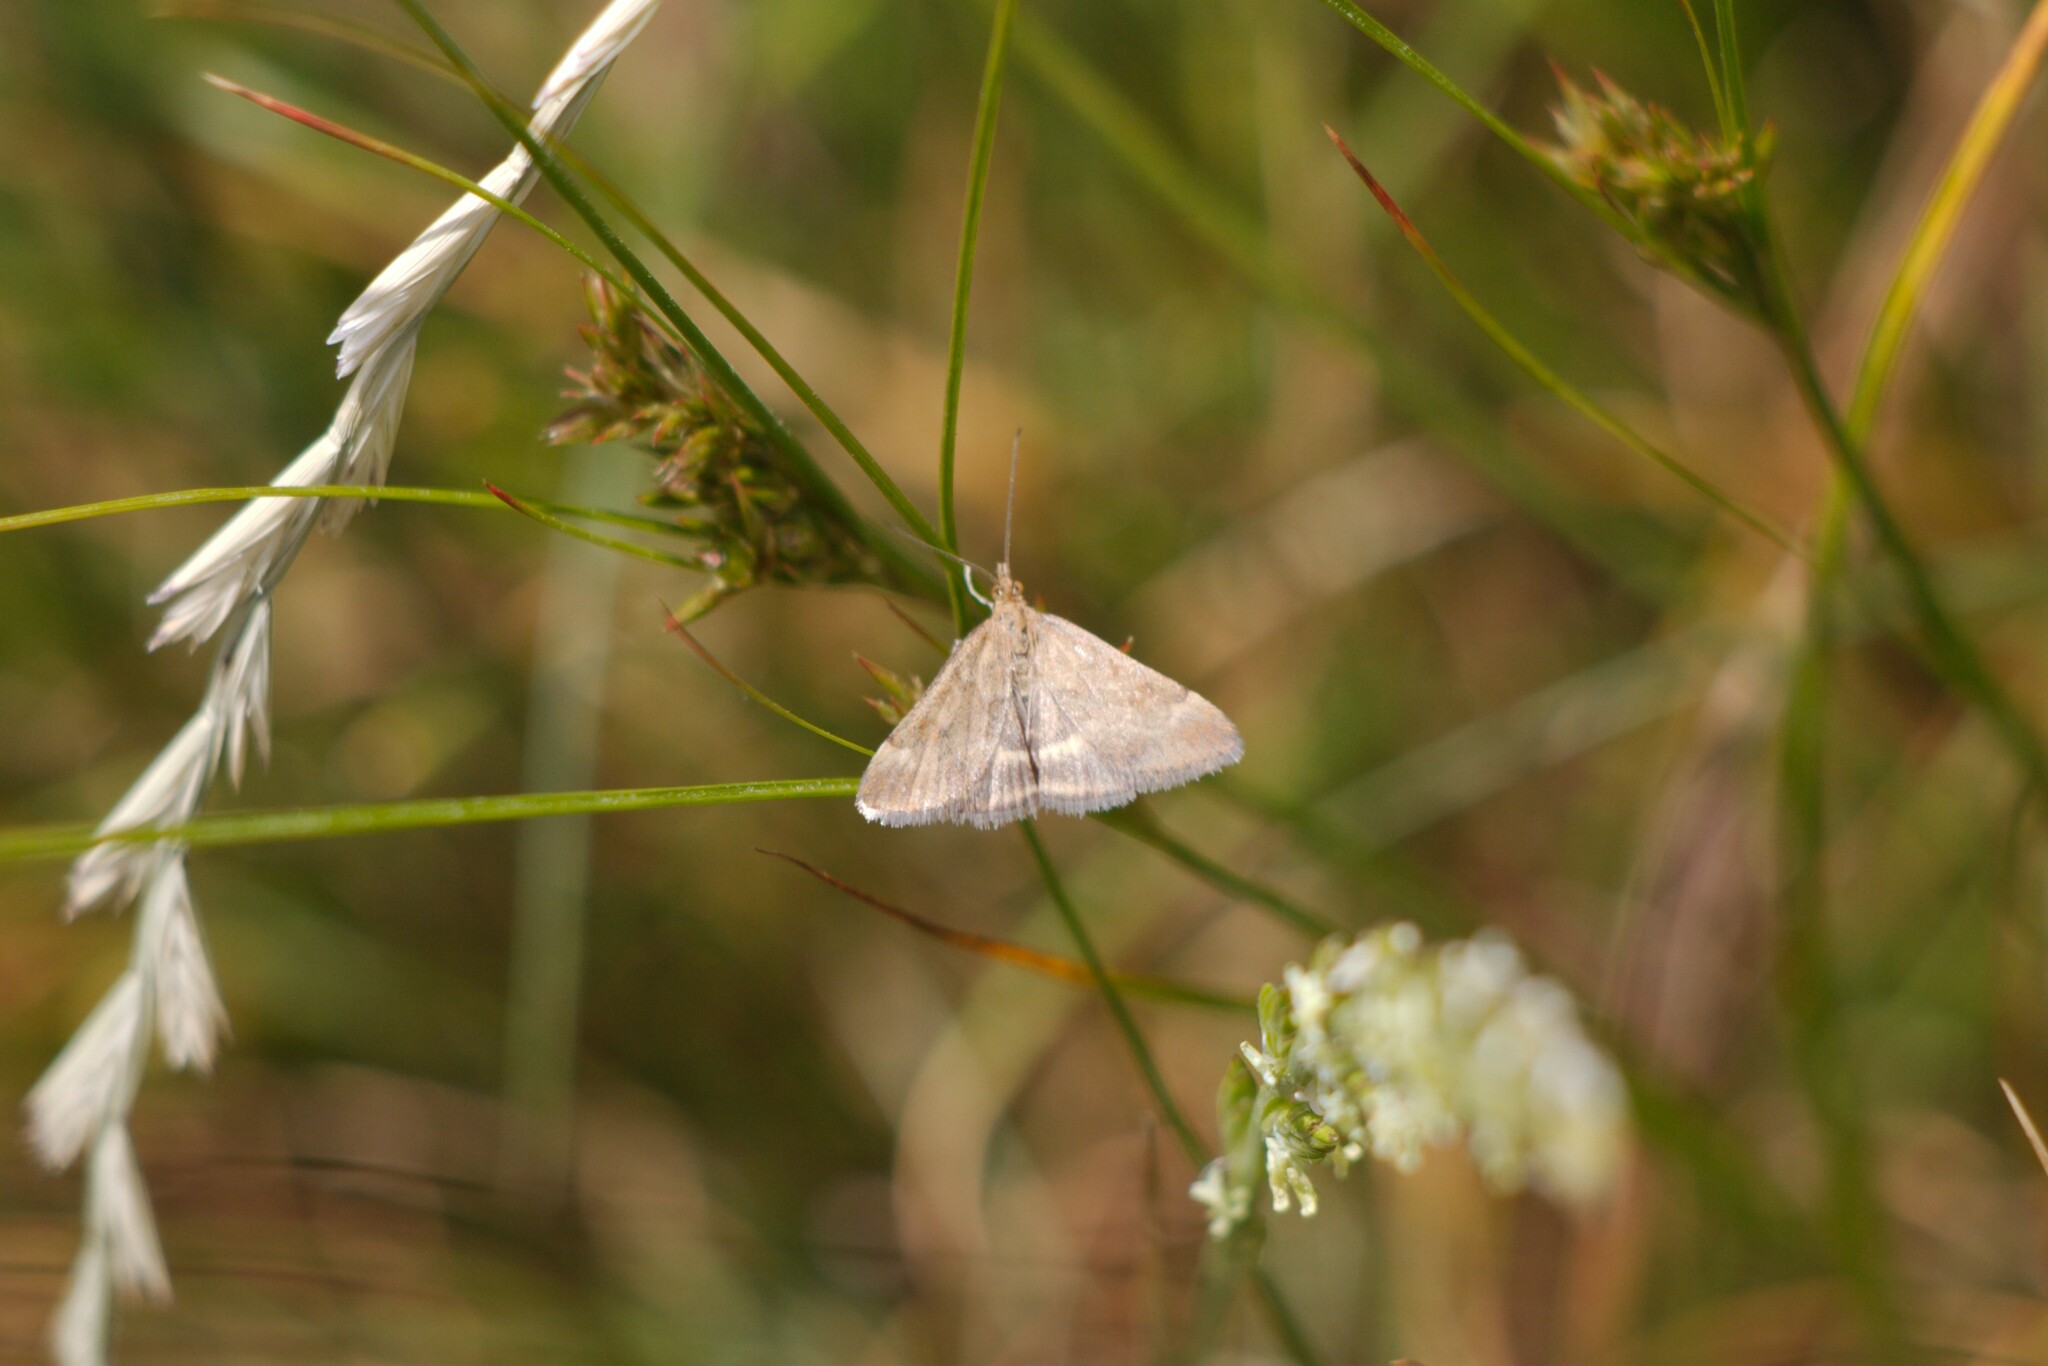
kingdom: Animalia
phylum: Arthropoda
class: Insecta
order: Lepidoptera
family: Crambidae
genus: Pyrausta
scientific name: Pyrausta despicata
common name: Straw-barred pearl
